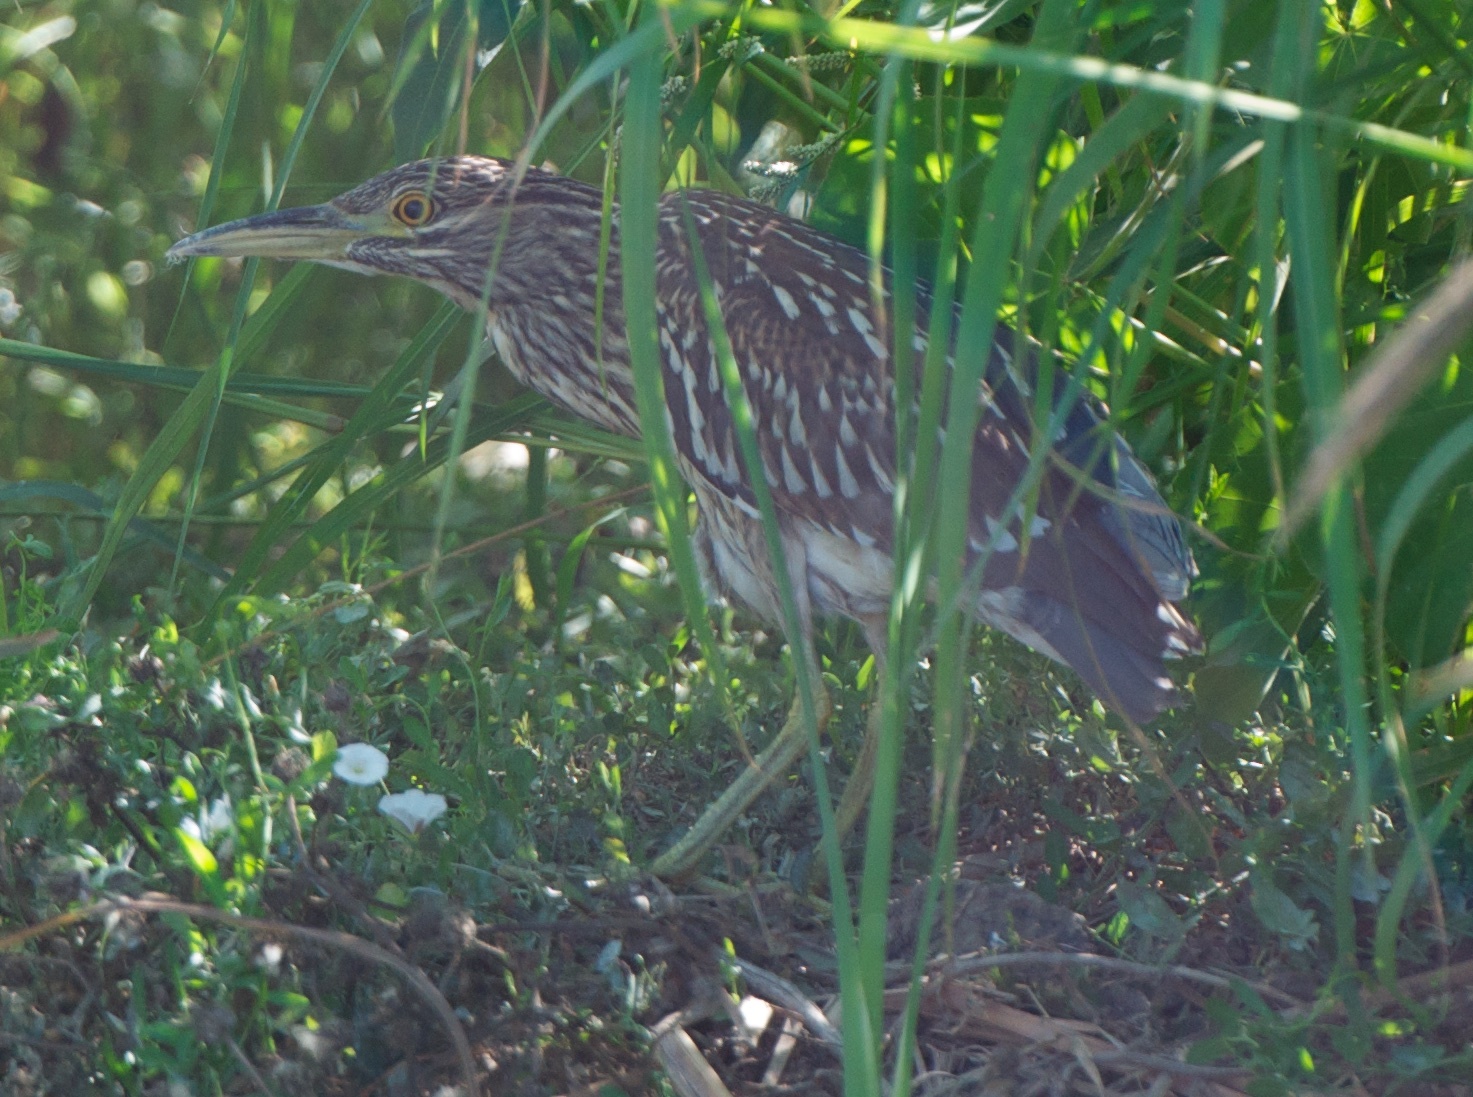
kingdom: Animalia
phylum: Chordata
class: Aves
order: Pelecaniformes
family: Ardeidae
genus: Nycticorax
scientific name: Nycticorax nycticorax
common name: Black-crowned night heron
